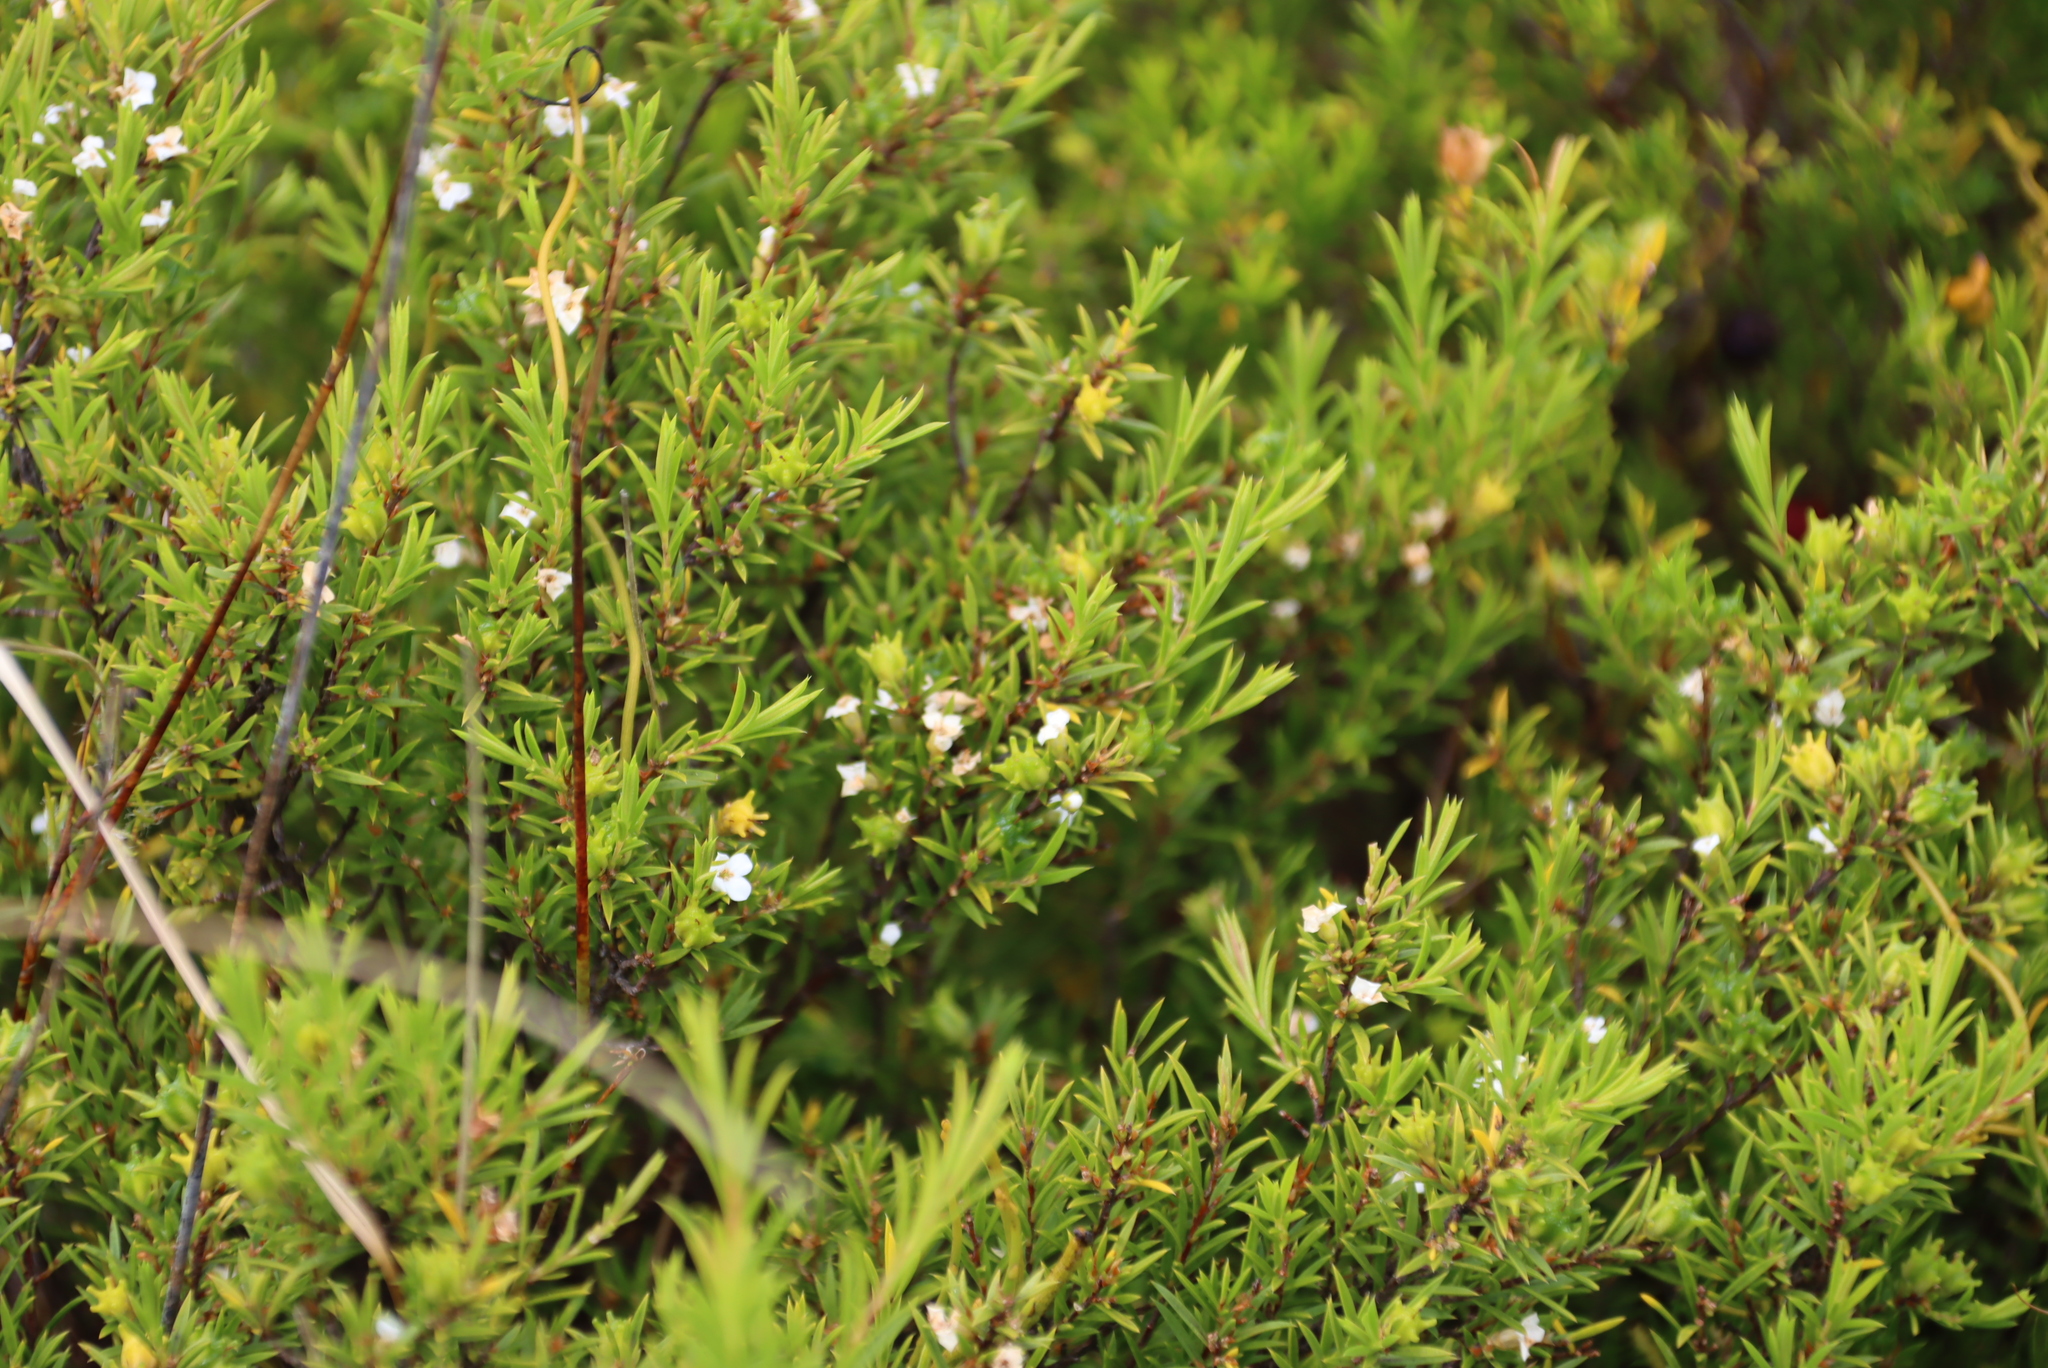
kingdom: Plantae
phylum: Tracheophyta
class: Magnoliopsida
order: Sapindales
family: Rutaceae
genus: Coleonema
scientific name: Coleonema album
